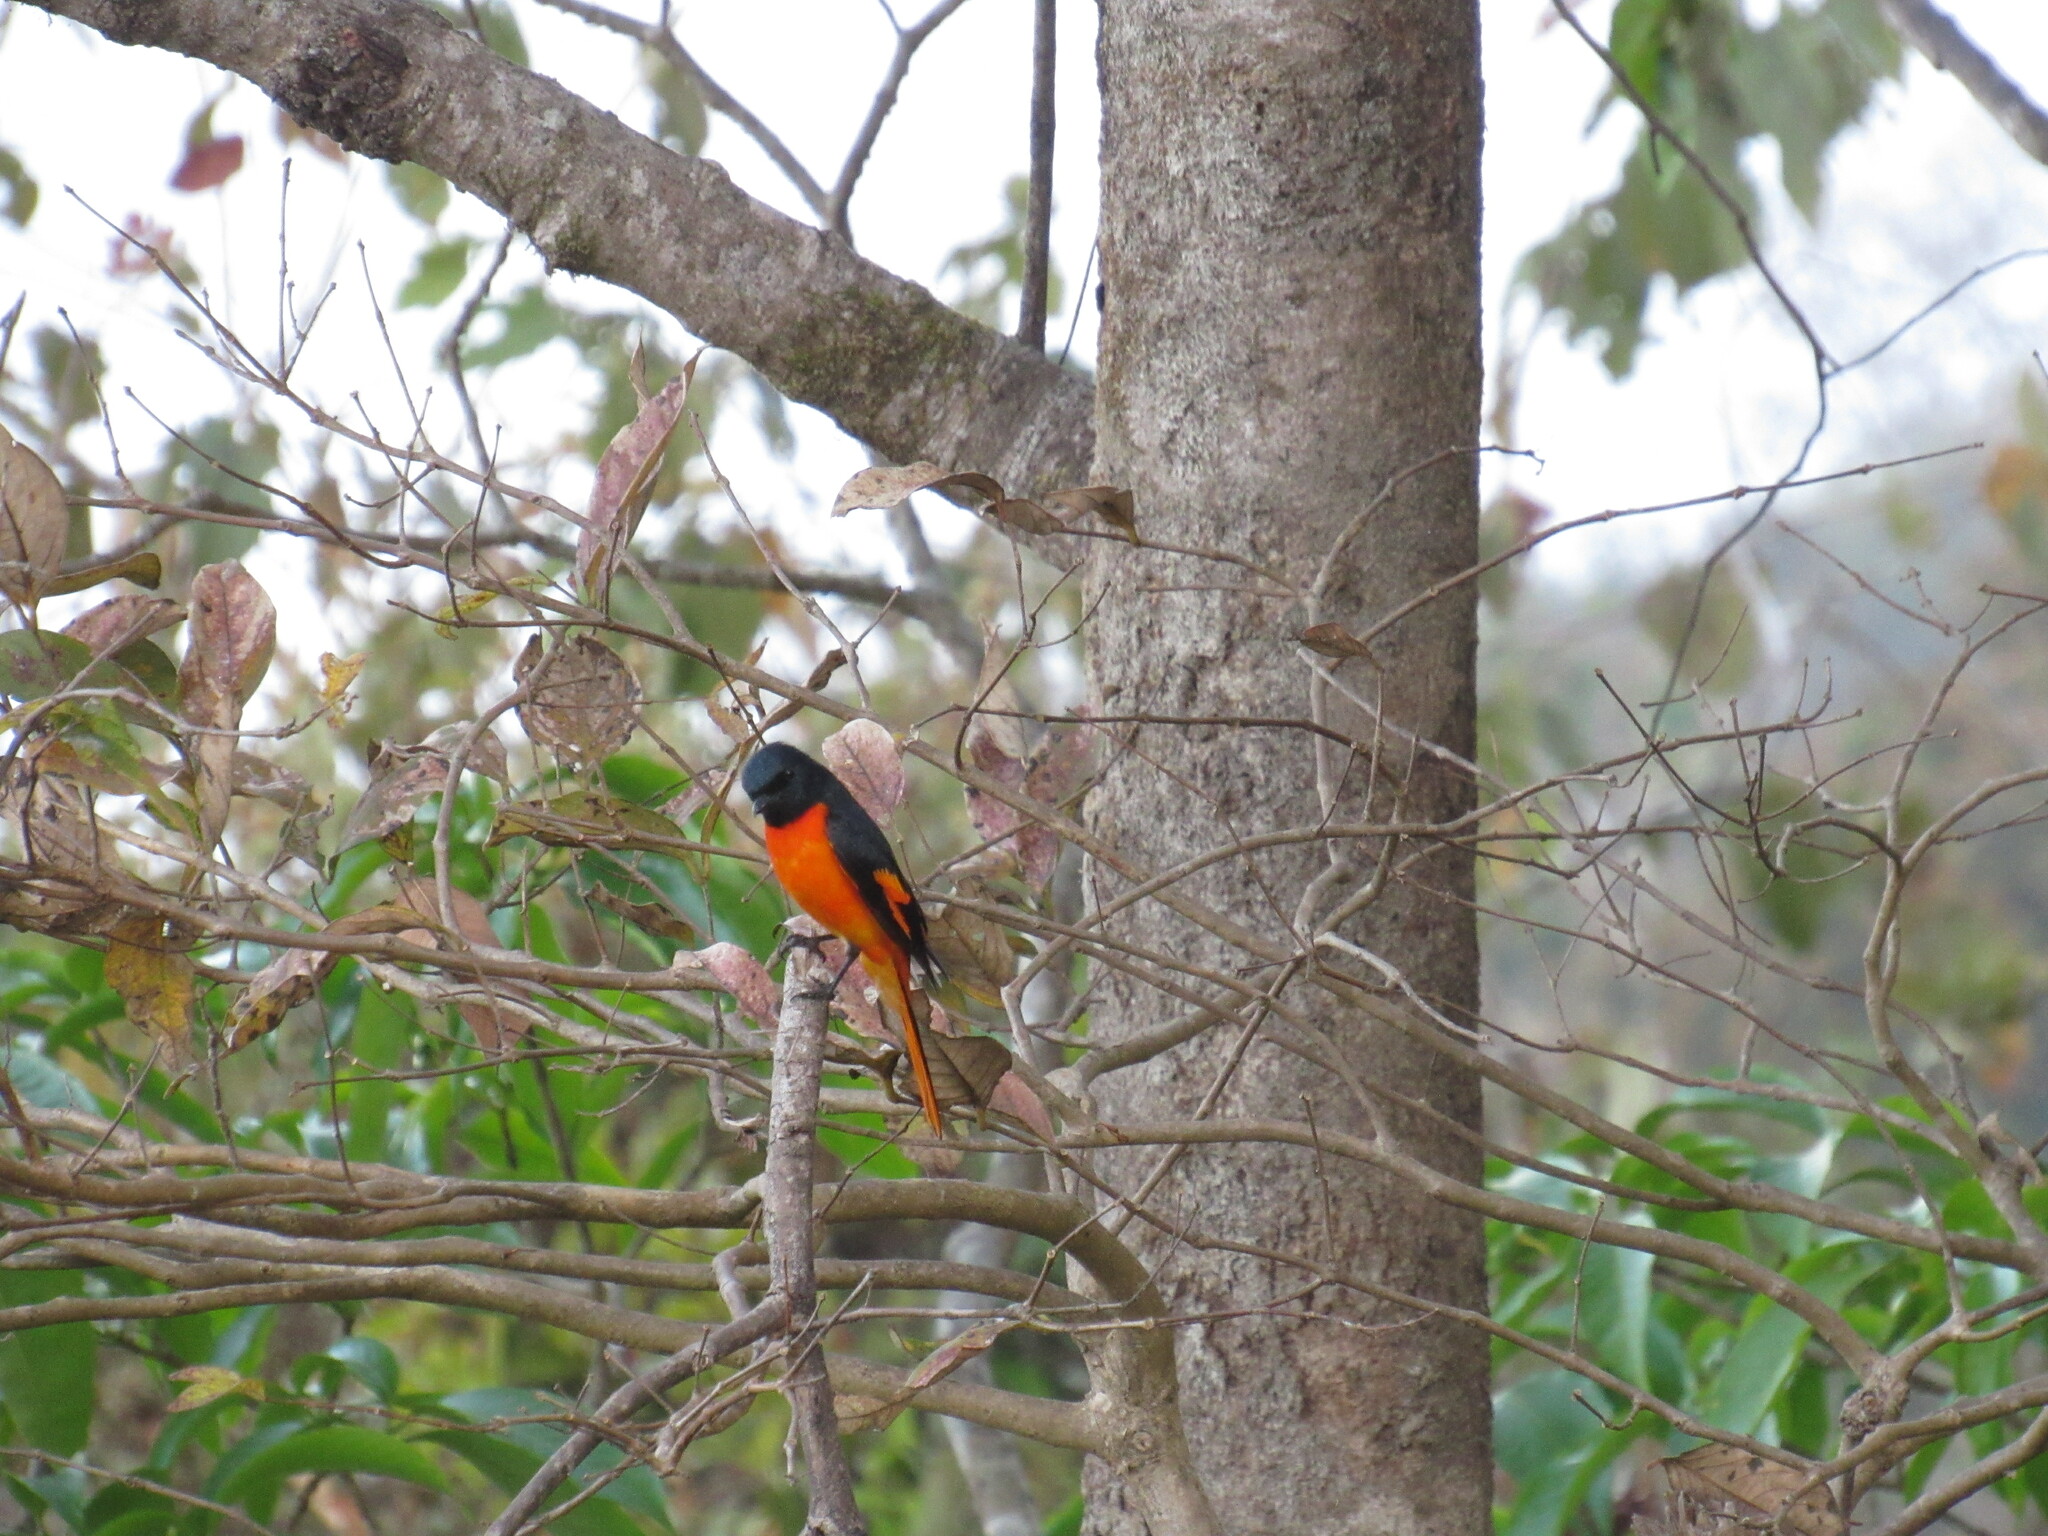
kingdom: Animalia
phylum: Chordata
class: Aves
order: Passeriformes
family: Campephagidae
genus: Pericrocotus
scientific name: Pericrocotus flammeus
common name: Orange minivet
